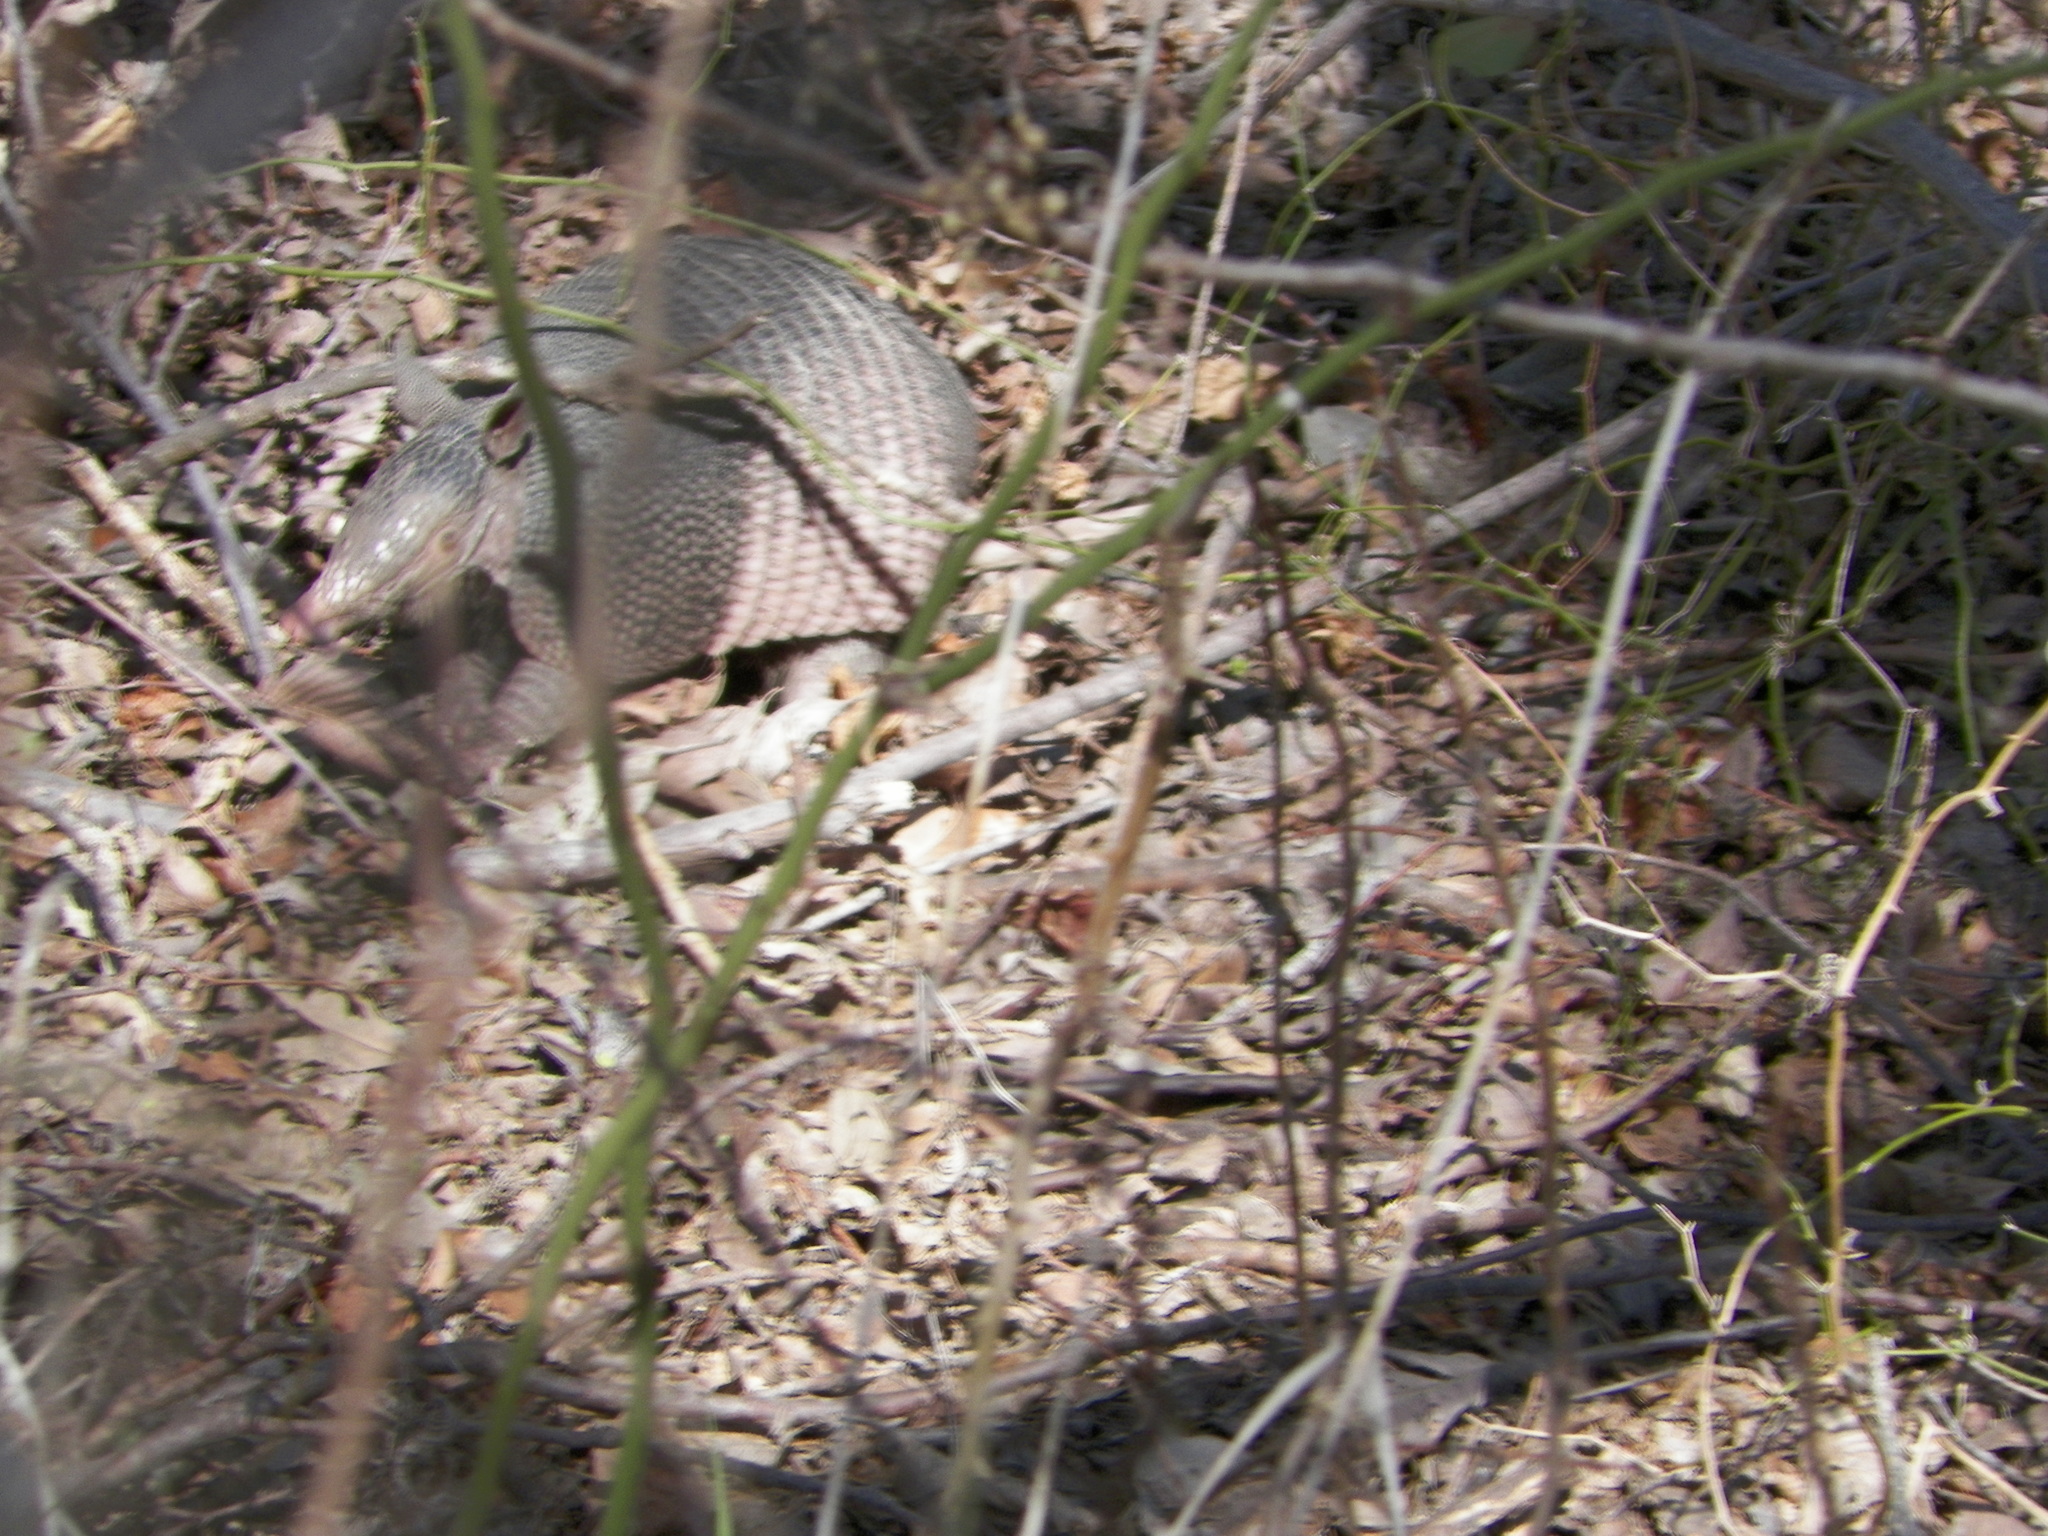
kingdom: Animalia
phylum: Chordata
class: Mammalia
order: Cingulata
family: Dasypodidae
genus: Dasypus
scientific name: Dasypus novemcinctus
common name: Nine-banded armadillo
